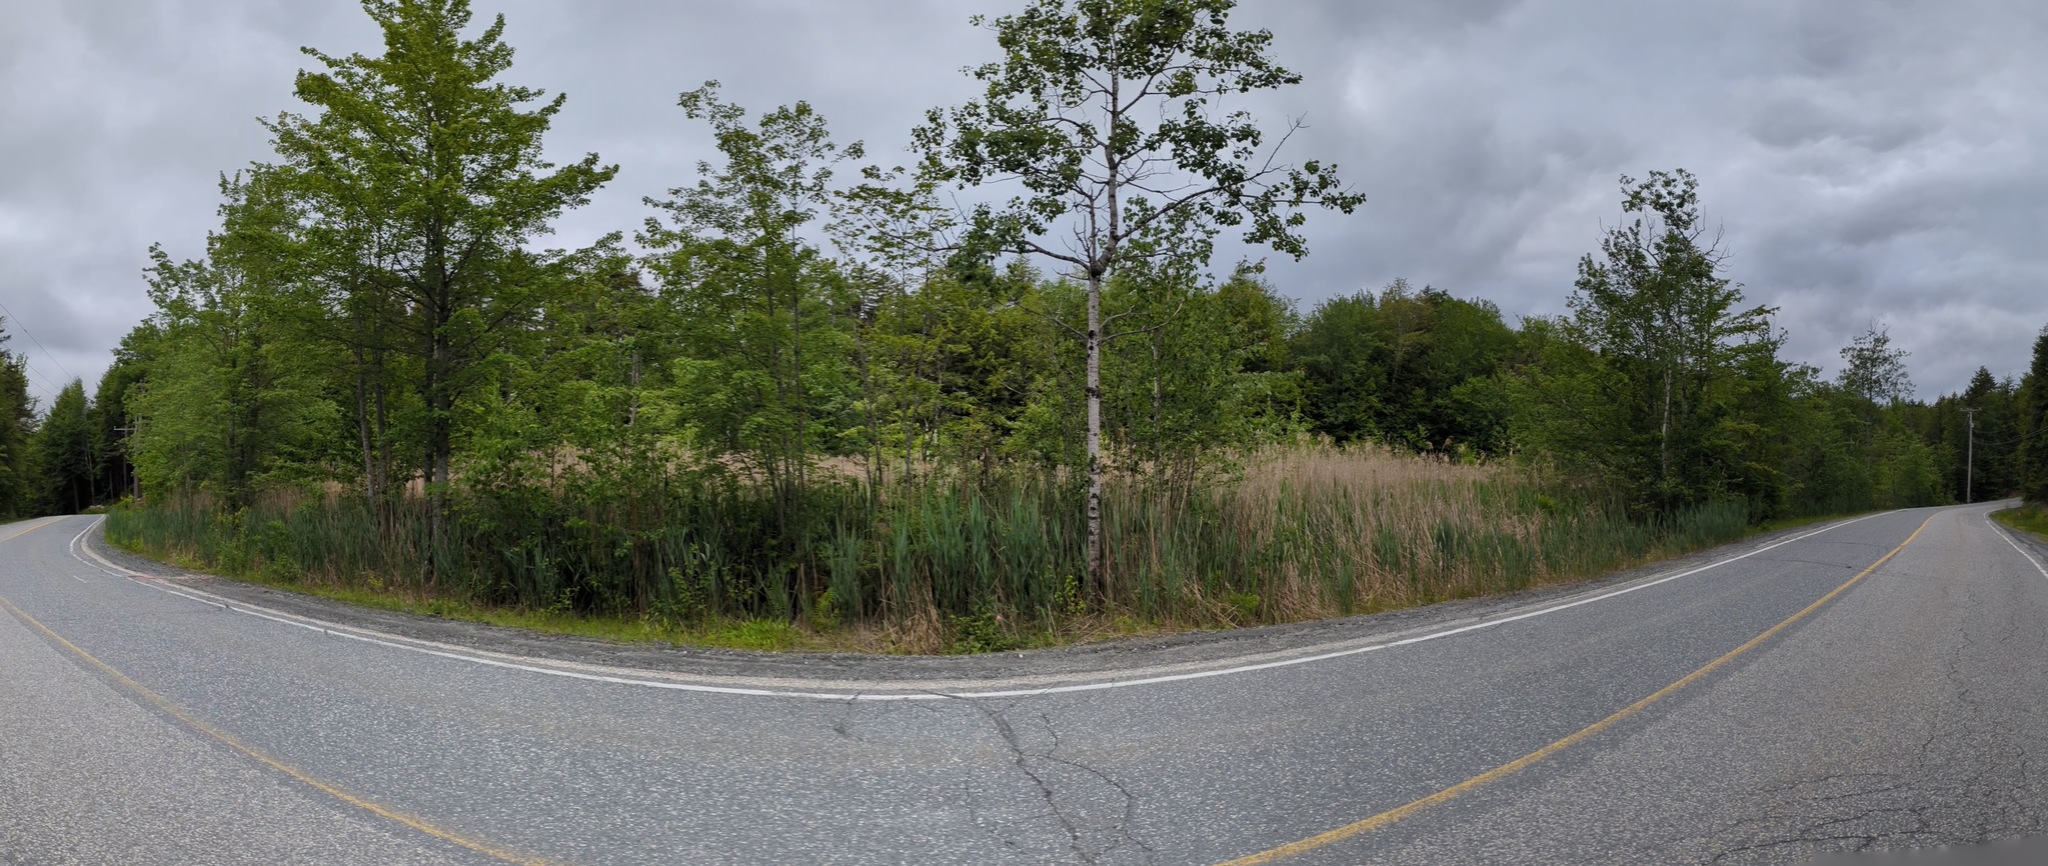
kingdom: Plantae
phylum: Tracheophyta
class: Liliopsida
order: Poales
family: Poaceae
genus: Phragmites
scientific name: Phragmites australis
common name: Common reed
